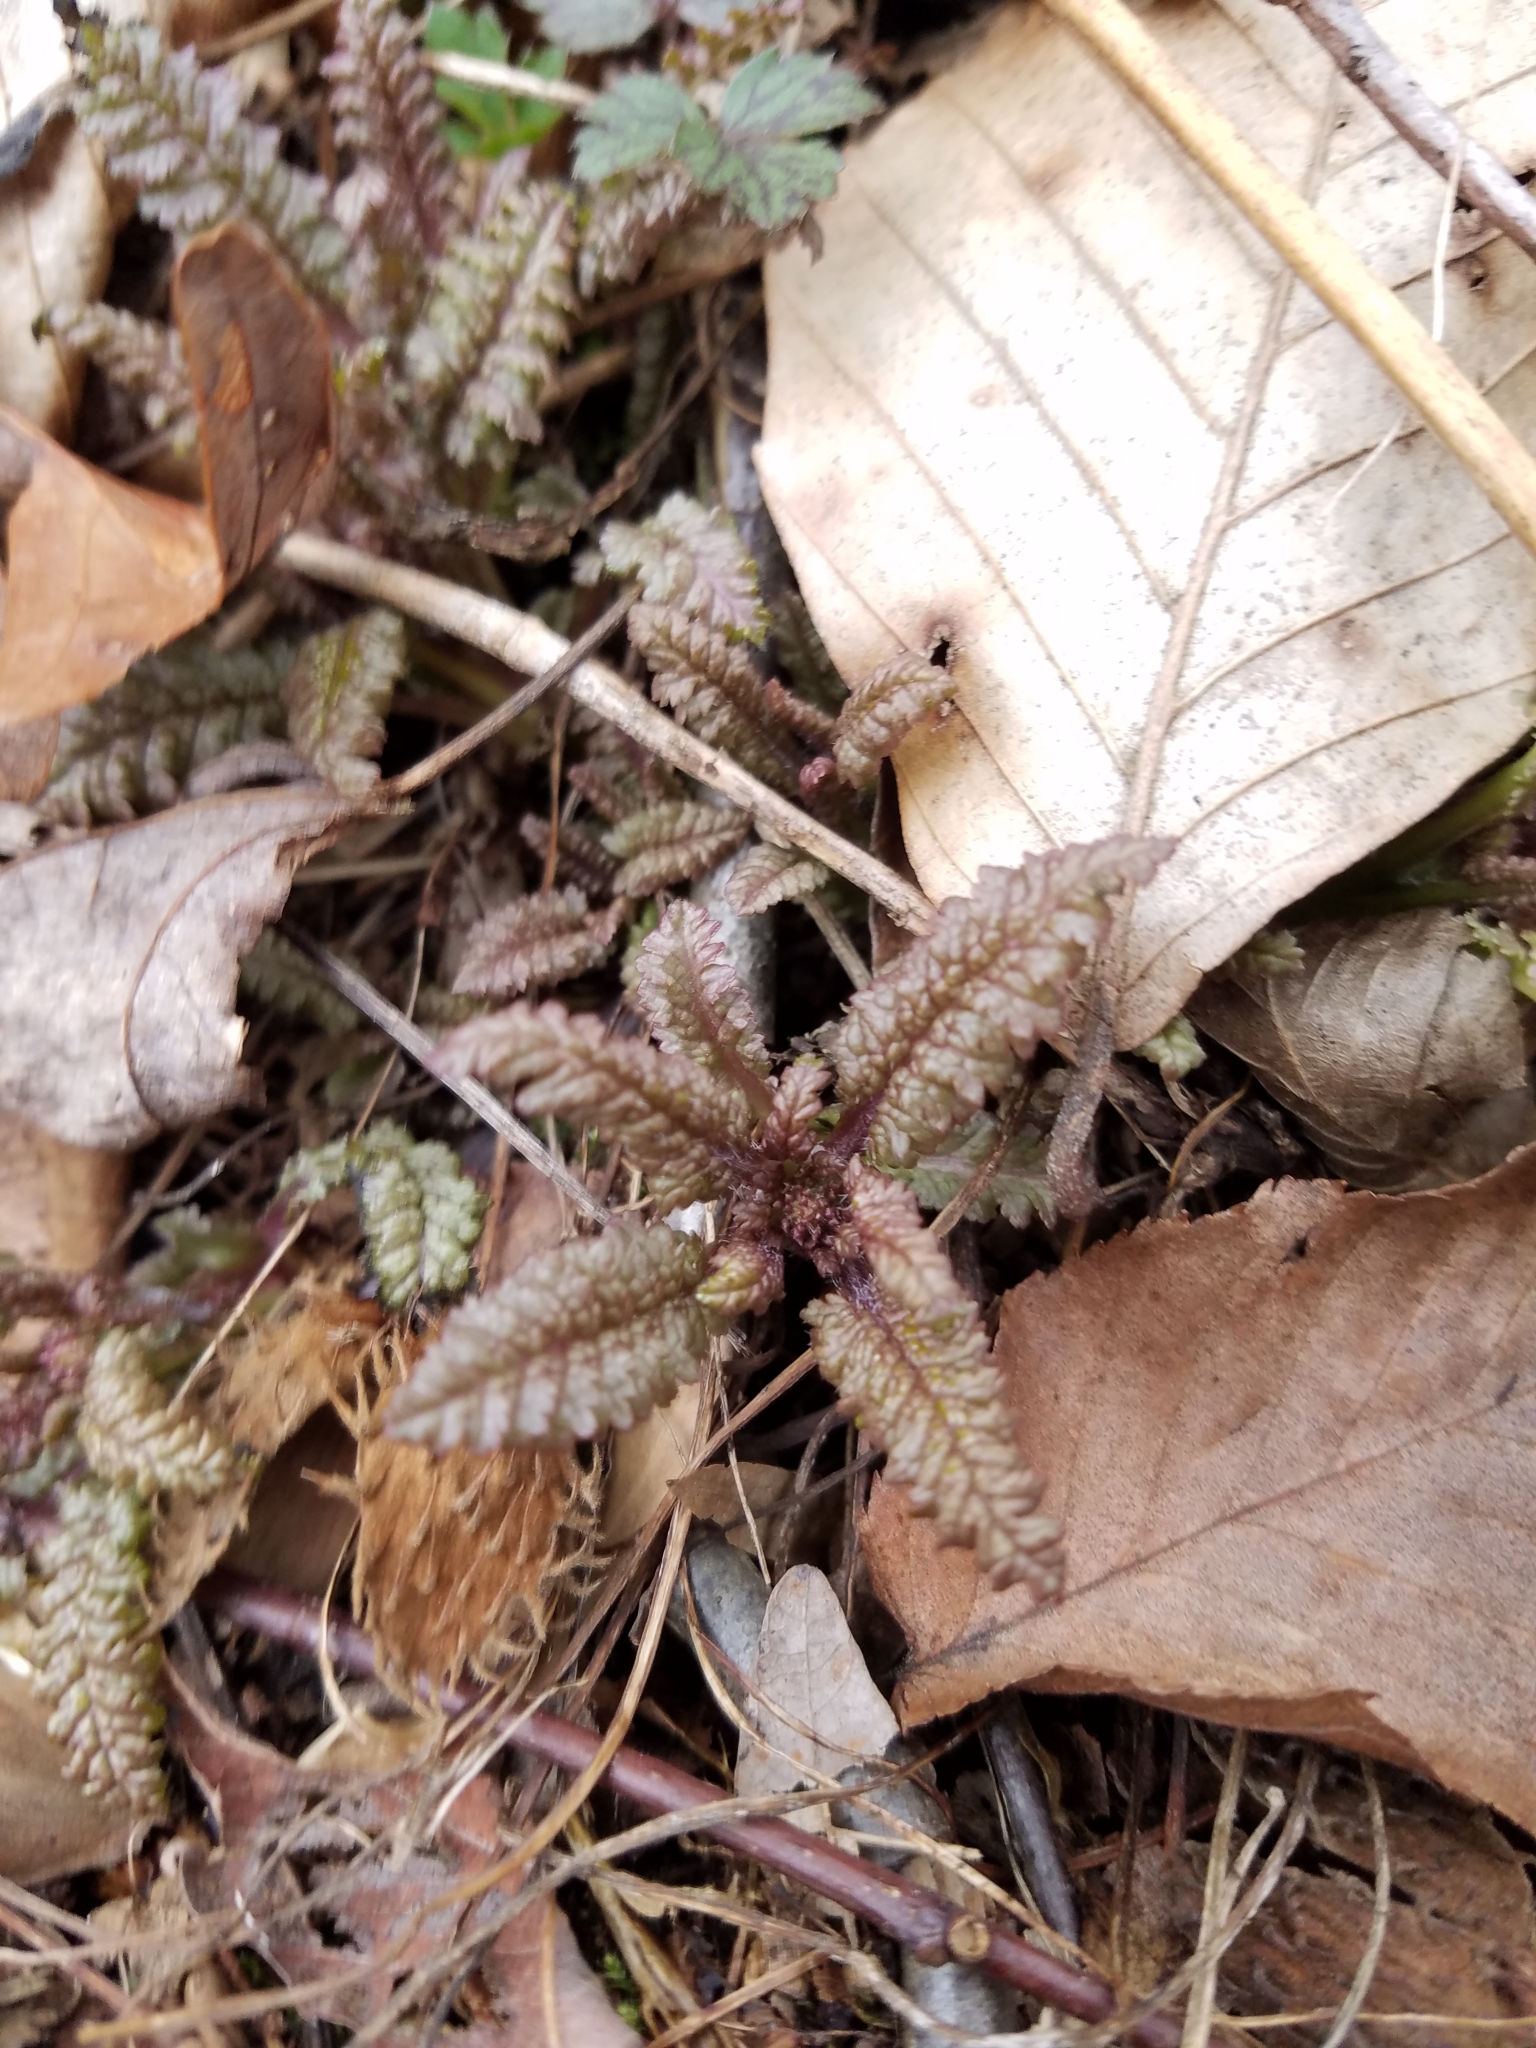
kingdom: Plantae
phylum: Tracheophyta
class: Magnoliopsida
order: Lamiales
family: Orobanchaceae
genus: Pedicularis
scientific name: Pedicularis canadensis
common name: Early lousewort
